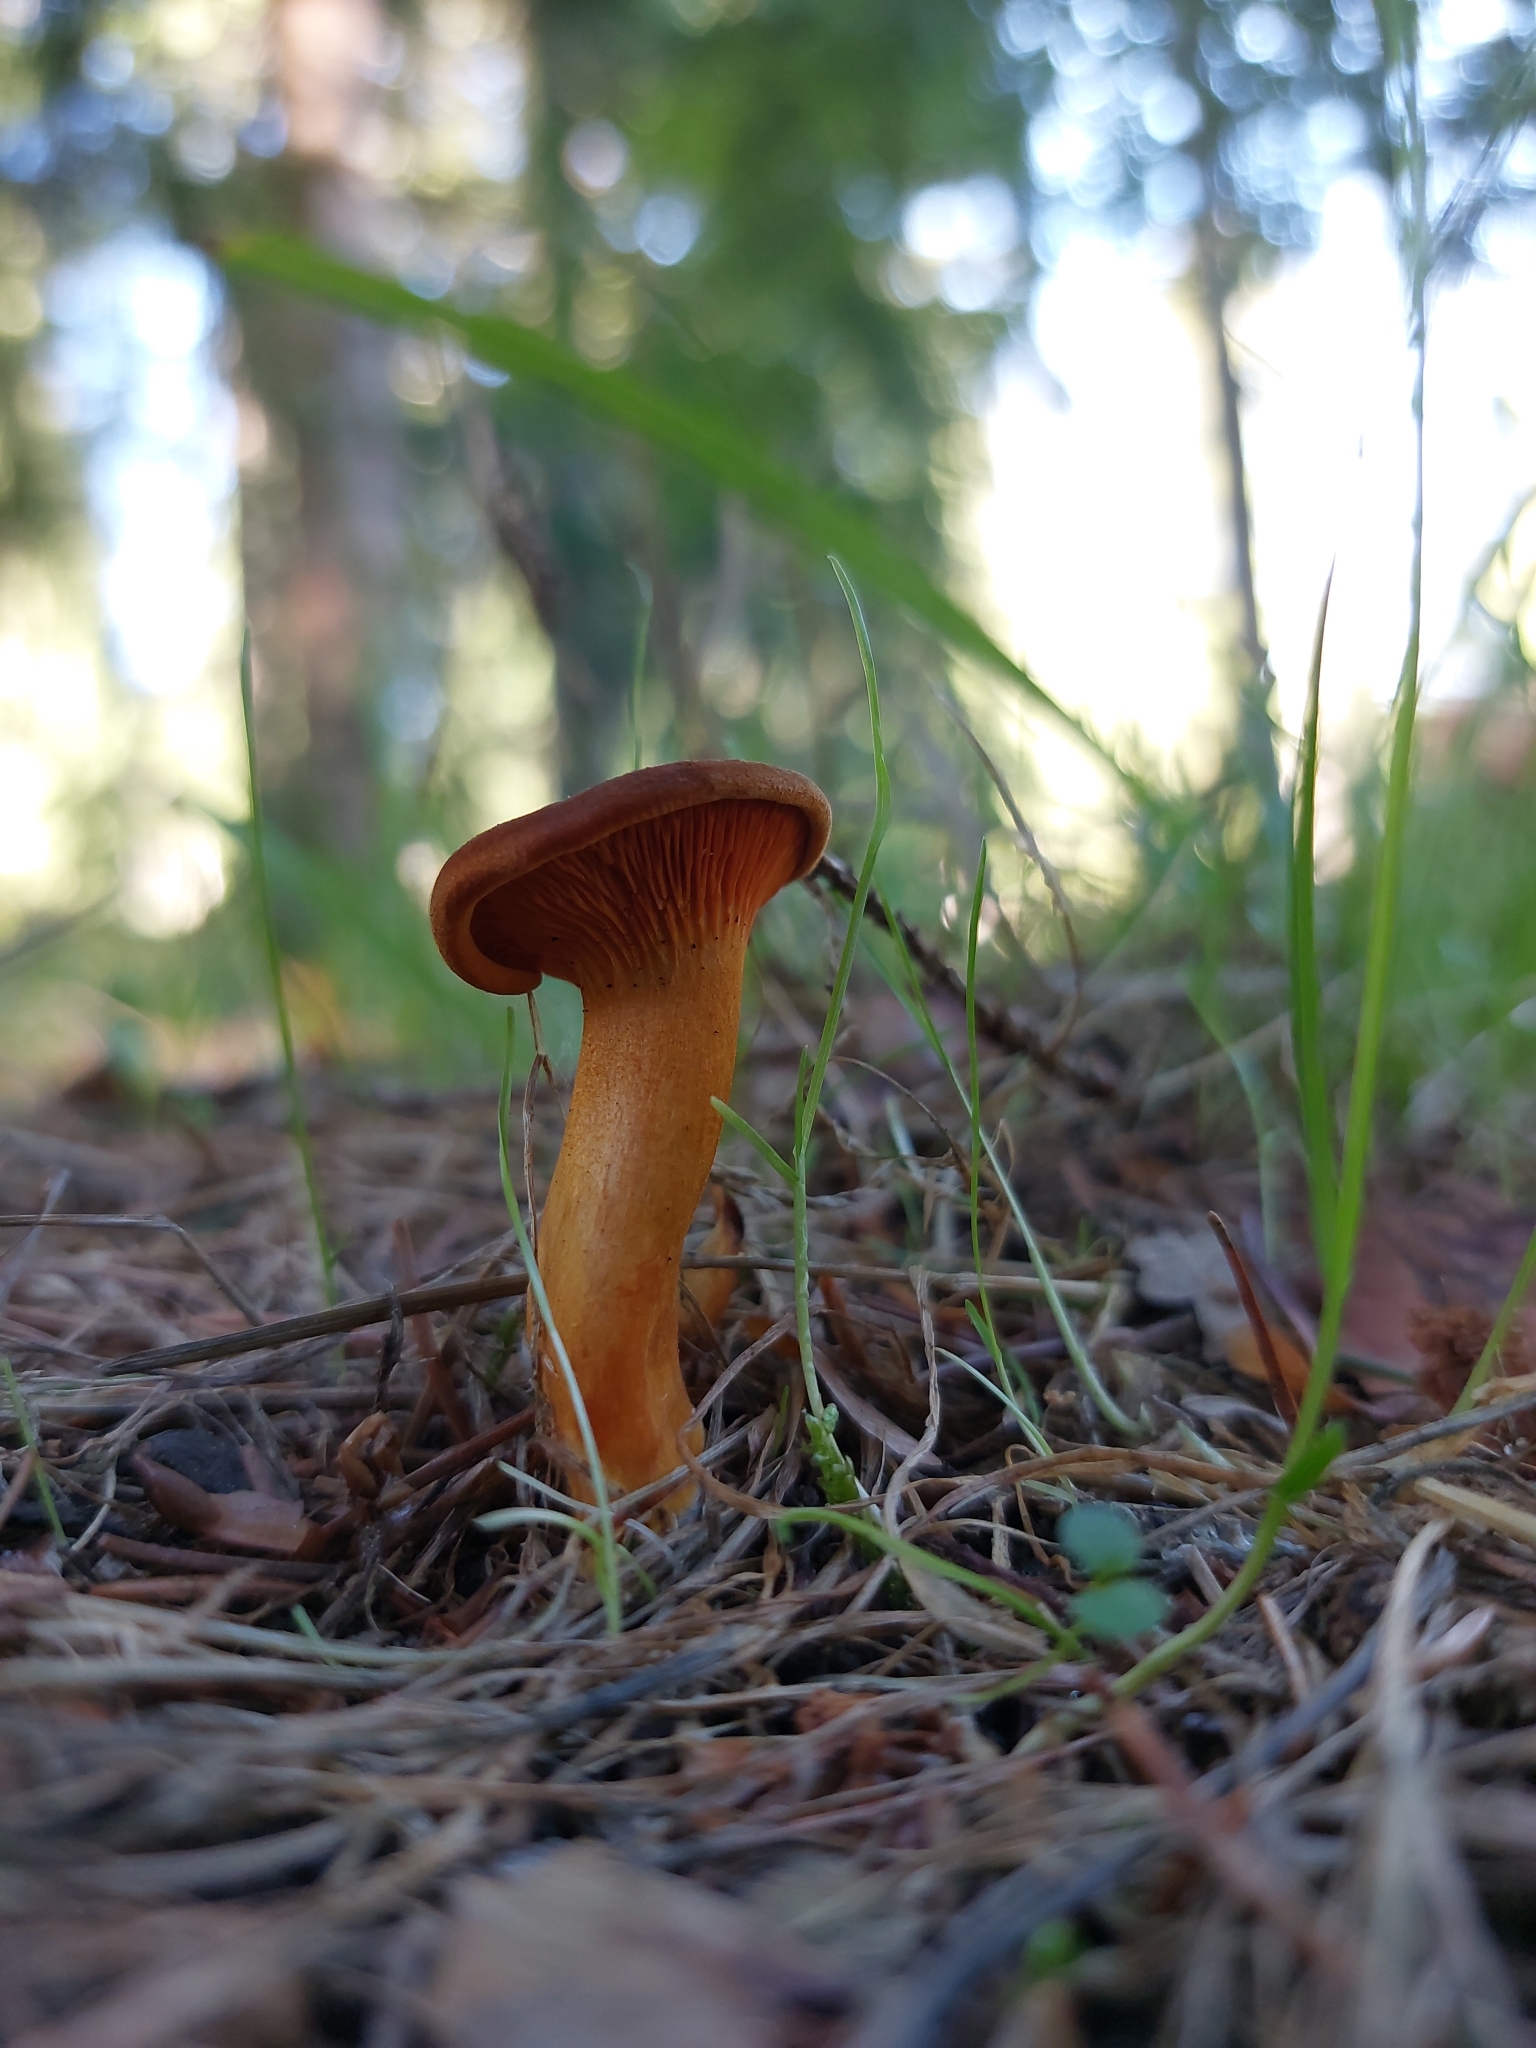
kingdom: Fungi
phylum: Basidiomycota
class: Agaricomycetes
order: Boletales
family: Hygrophoropsidaceae
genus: Hygrophoropsis
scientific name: Hygrophoropsis aurantiaca
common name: False chanterelle
